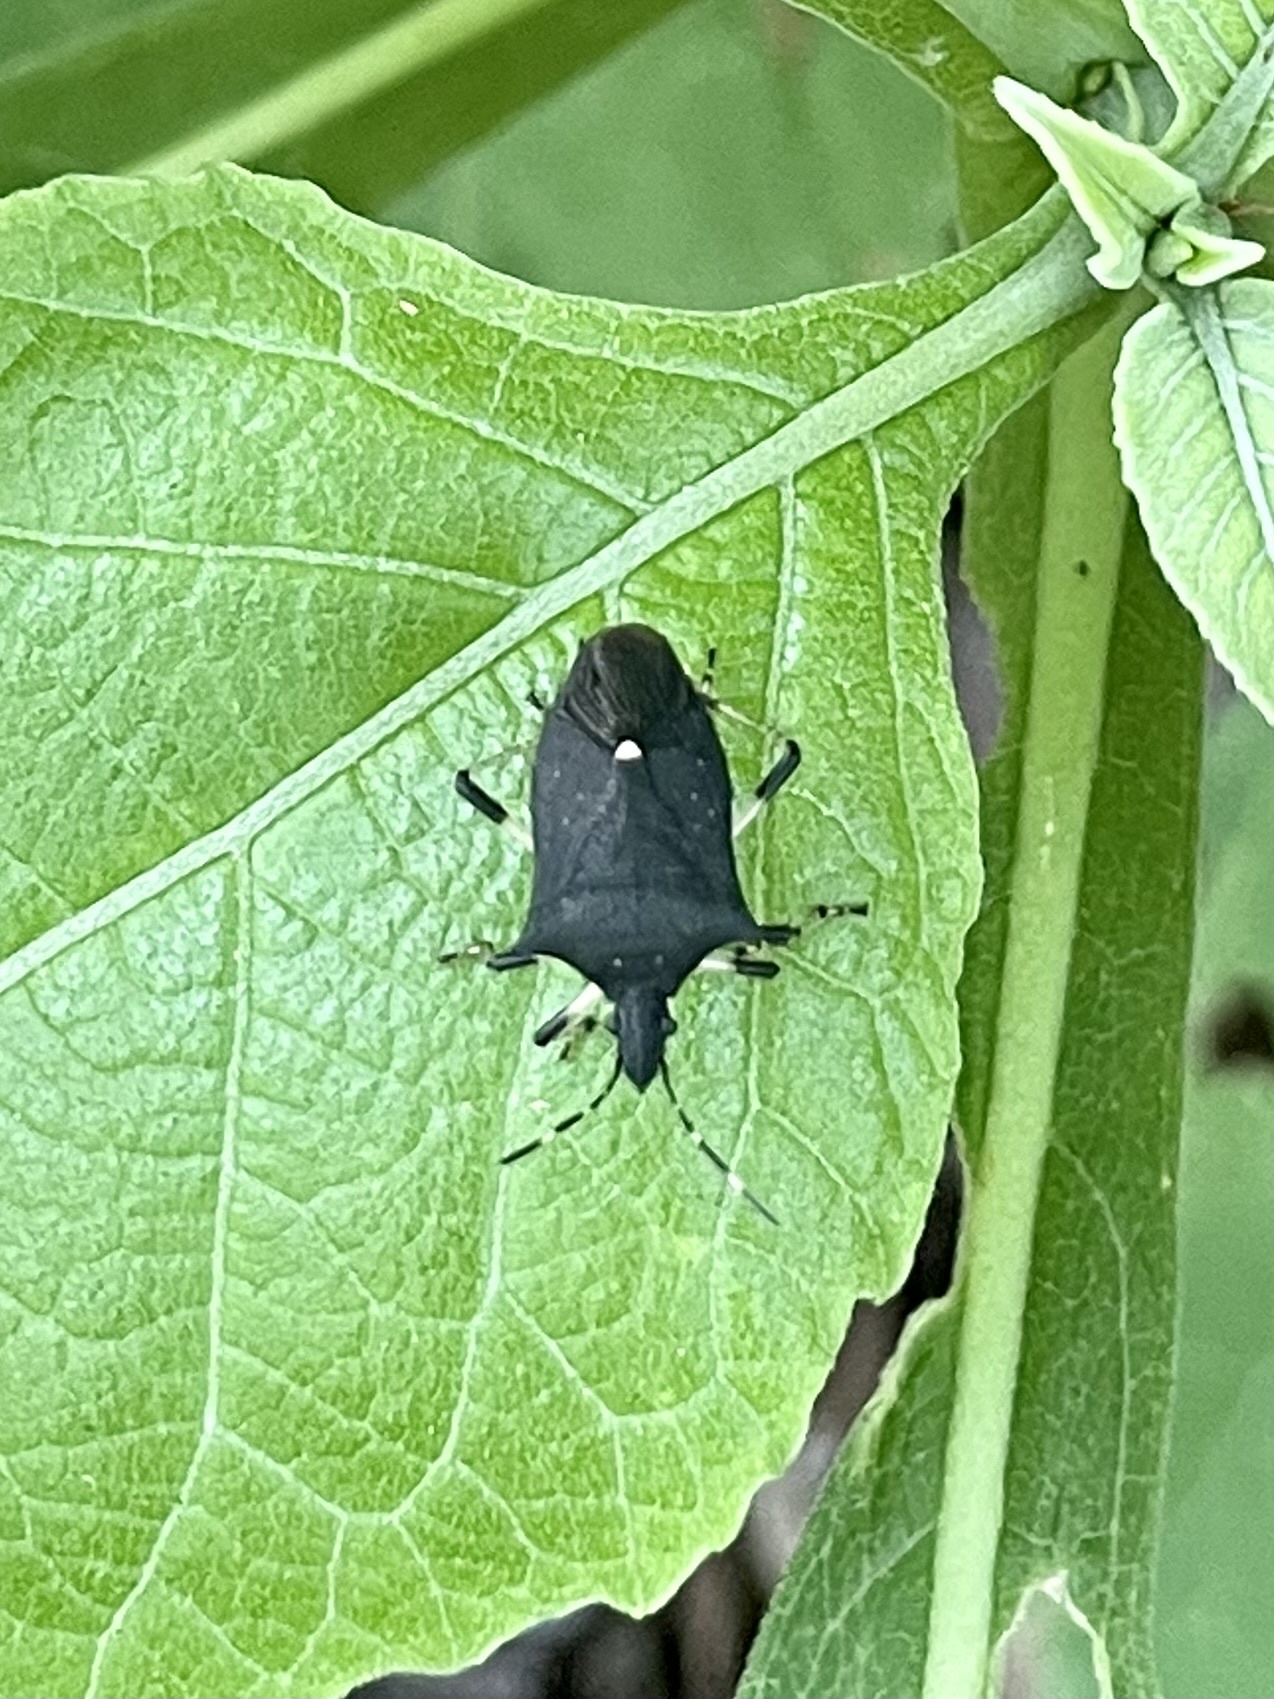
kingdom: Animalia
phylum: Arthropoda
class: Insecta
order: Hemiptera
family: Pentatomidae
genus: Proxys
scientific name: Proxys punctulatus
